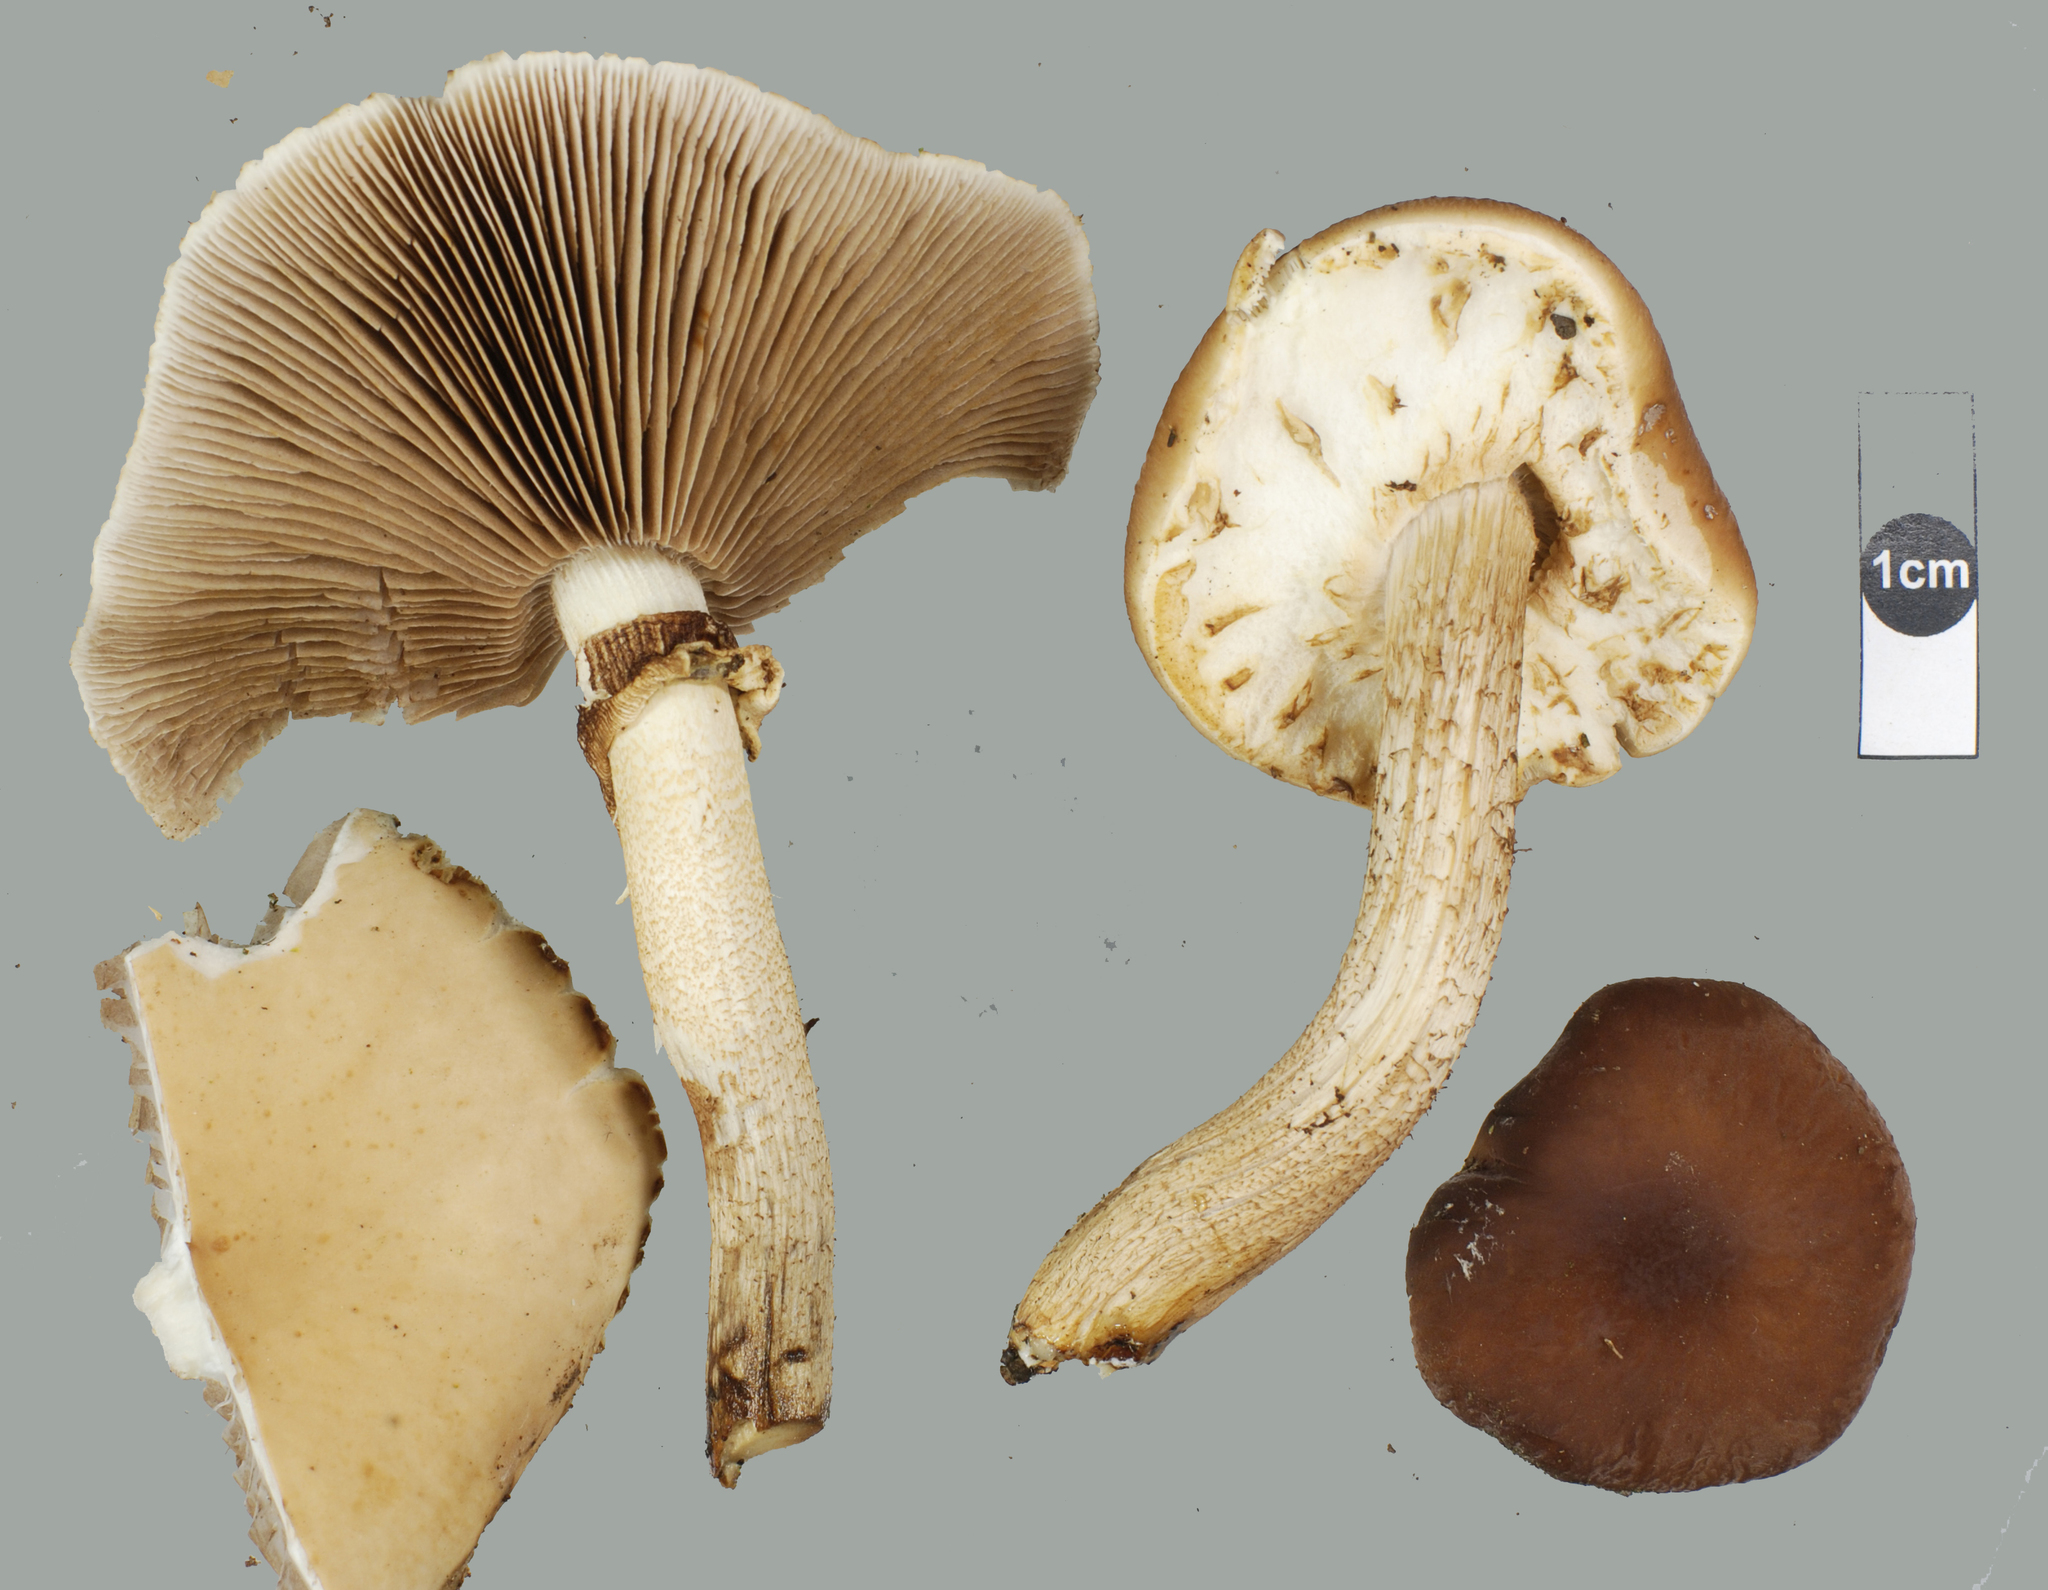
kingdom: Fungi
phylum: Basidiomycota
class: Agaricomycetes
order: Agaricales
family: Tubariaceae
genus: Cyclocybe
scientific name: Cyclocybe parasitica
